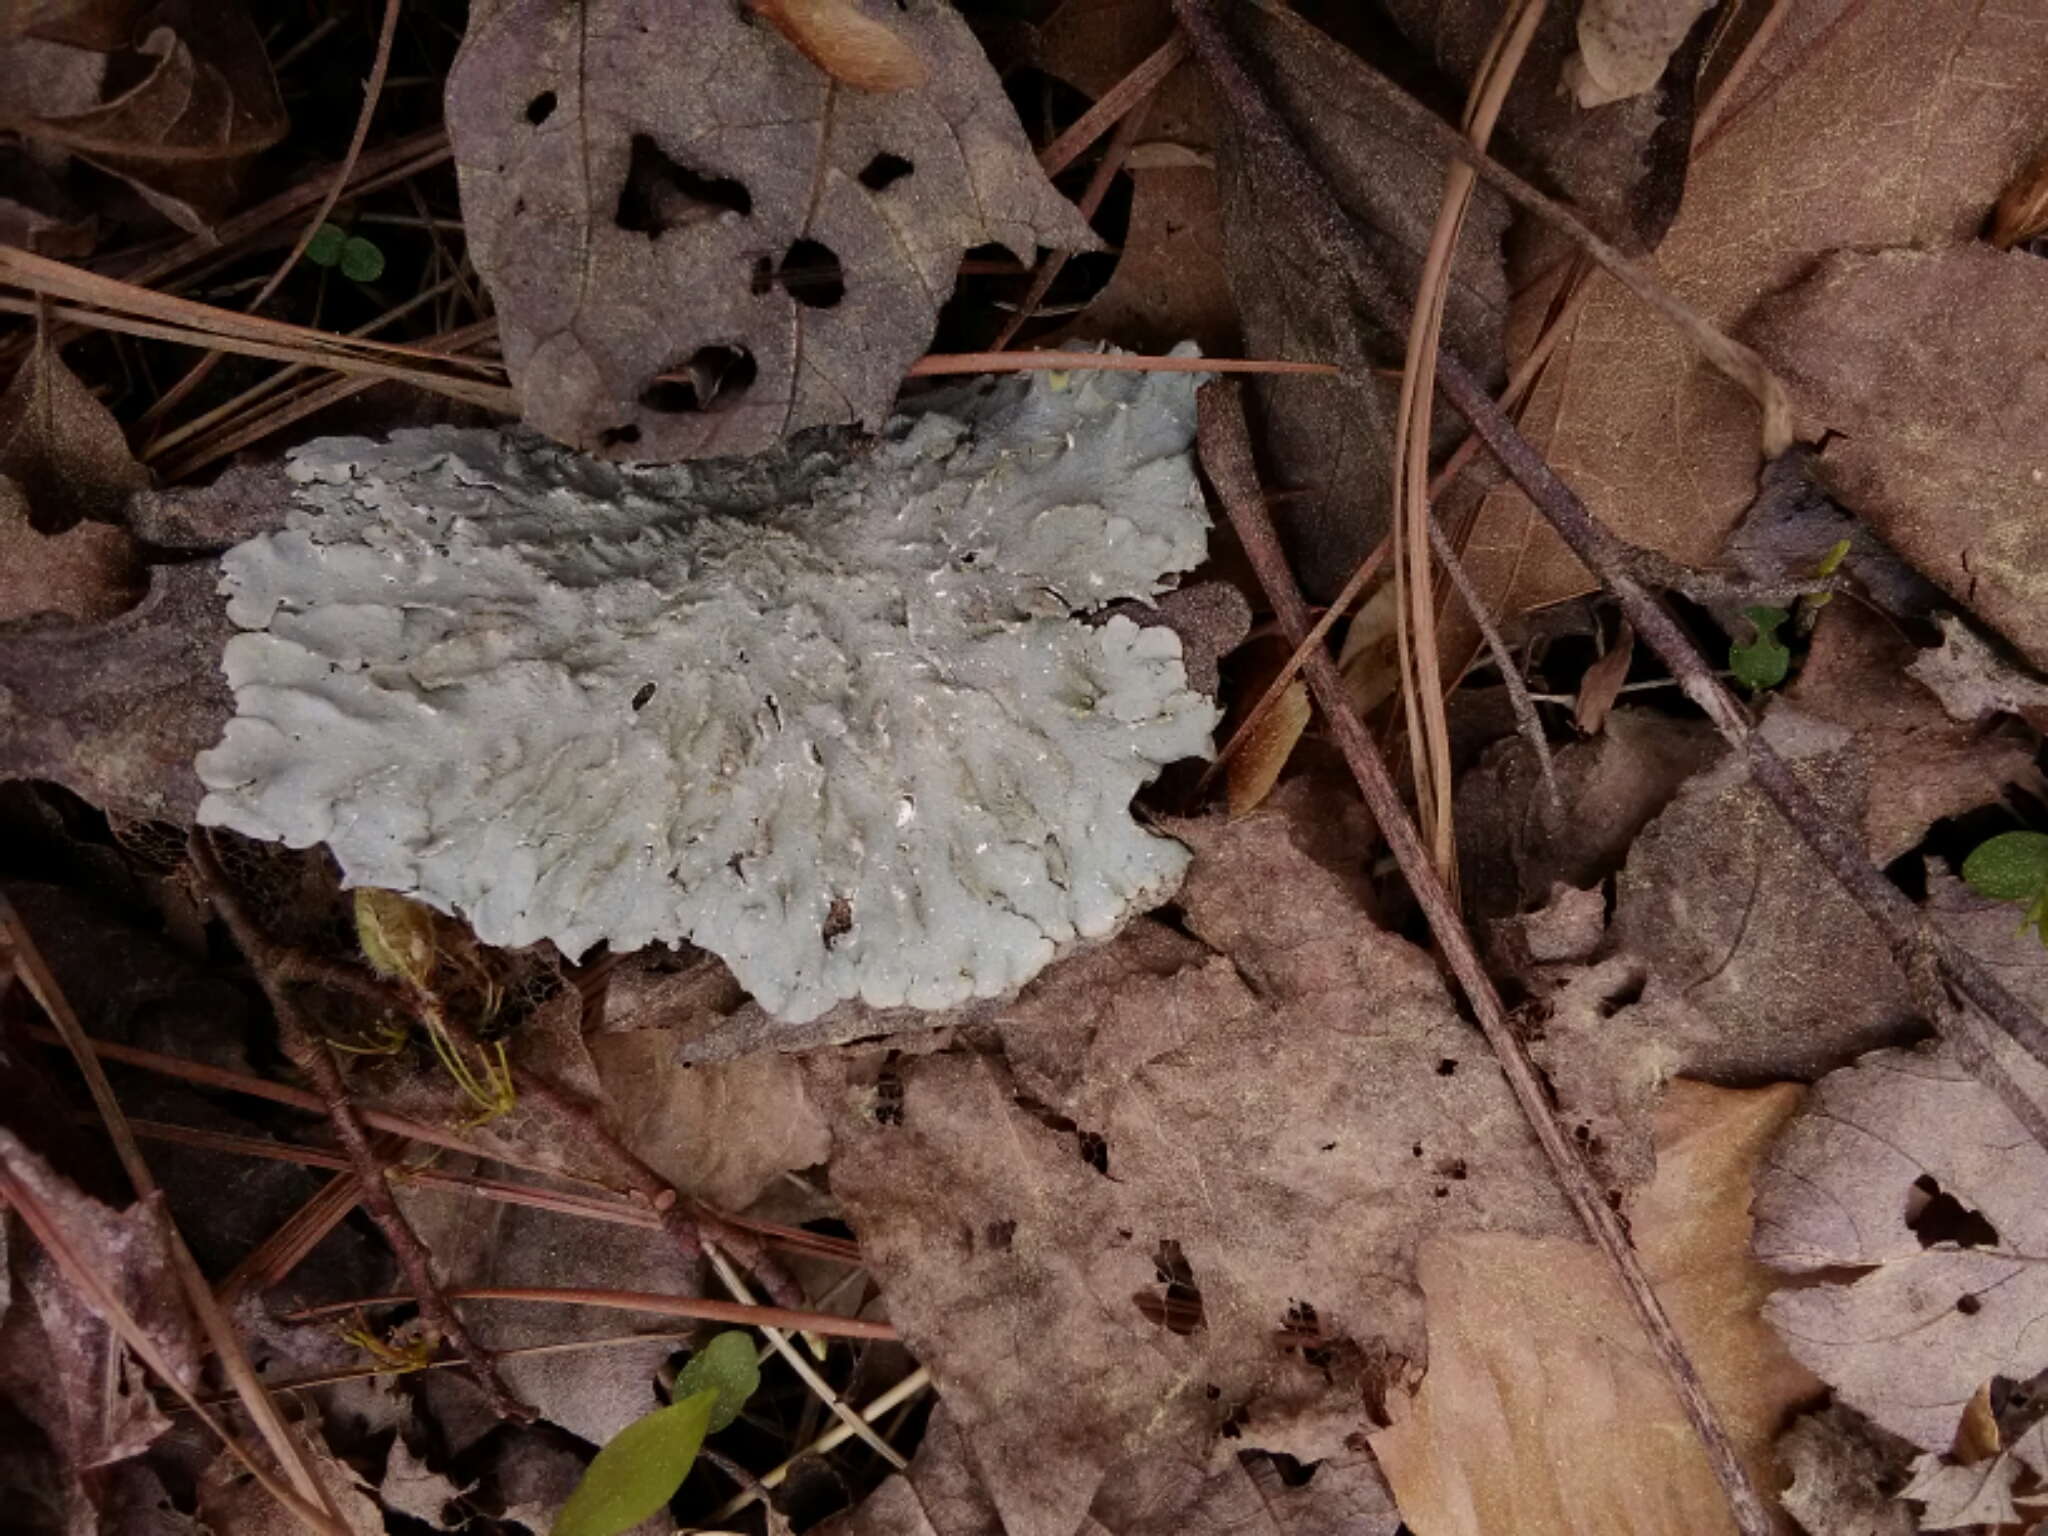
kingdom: Fungi
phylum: Ascomycota
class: Lecanoromycetes
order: Lecanorales
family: Parmeliaceae
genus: Punctelia
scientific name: Punctelia rudecta
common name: Rough speckled shield lichen
